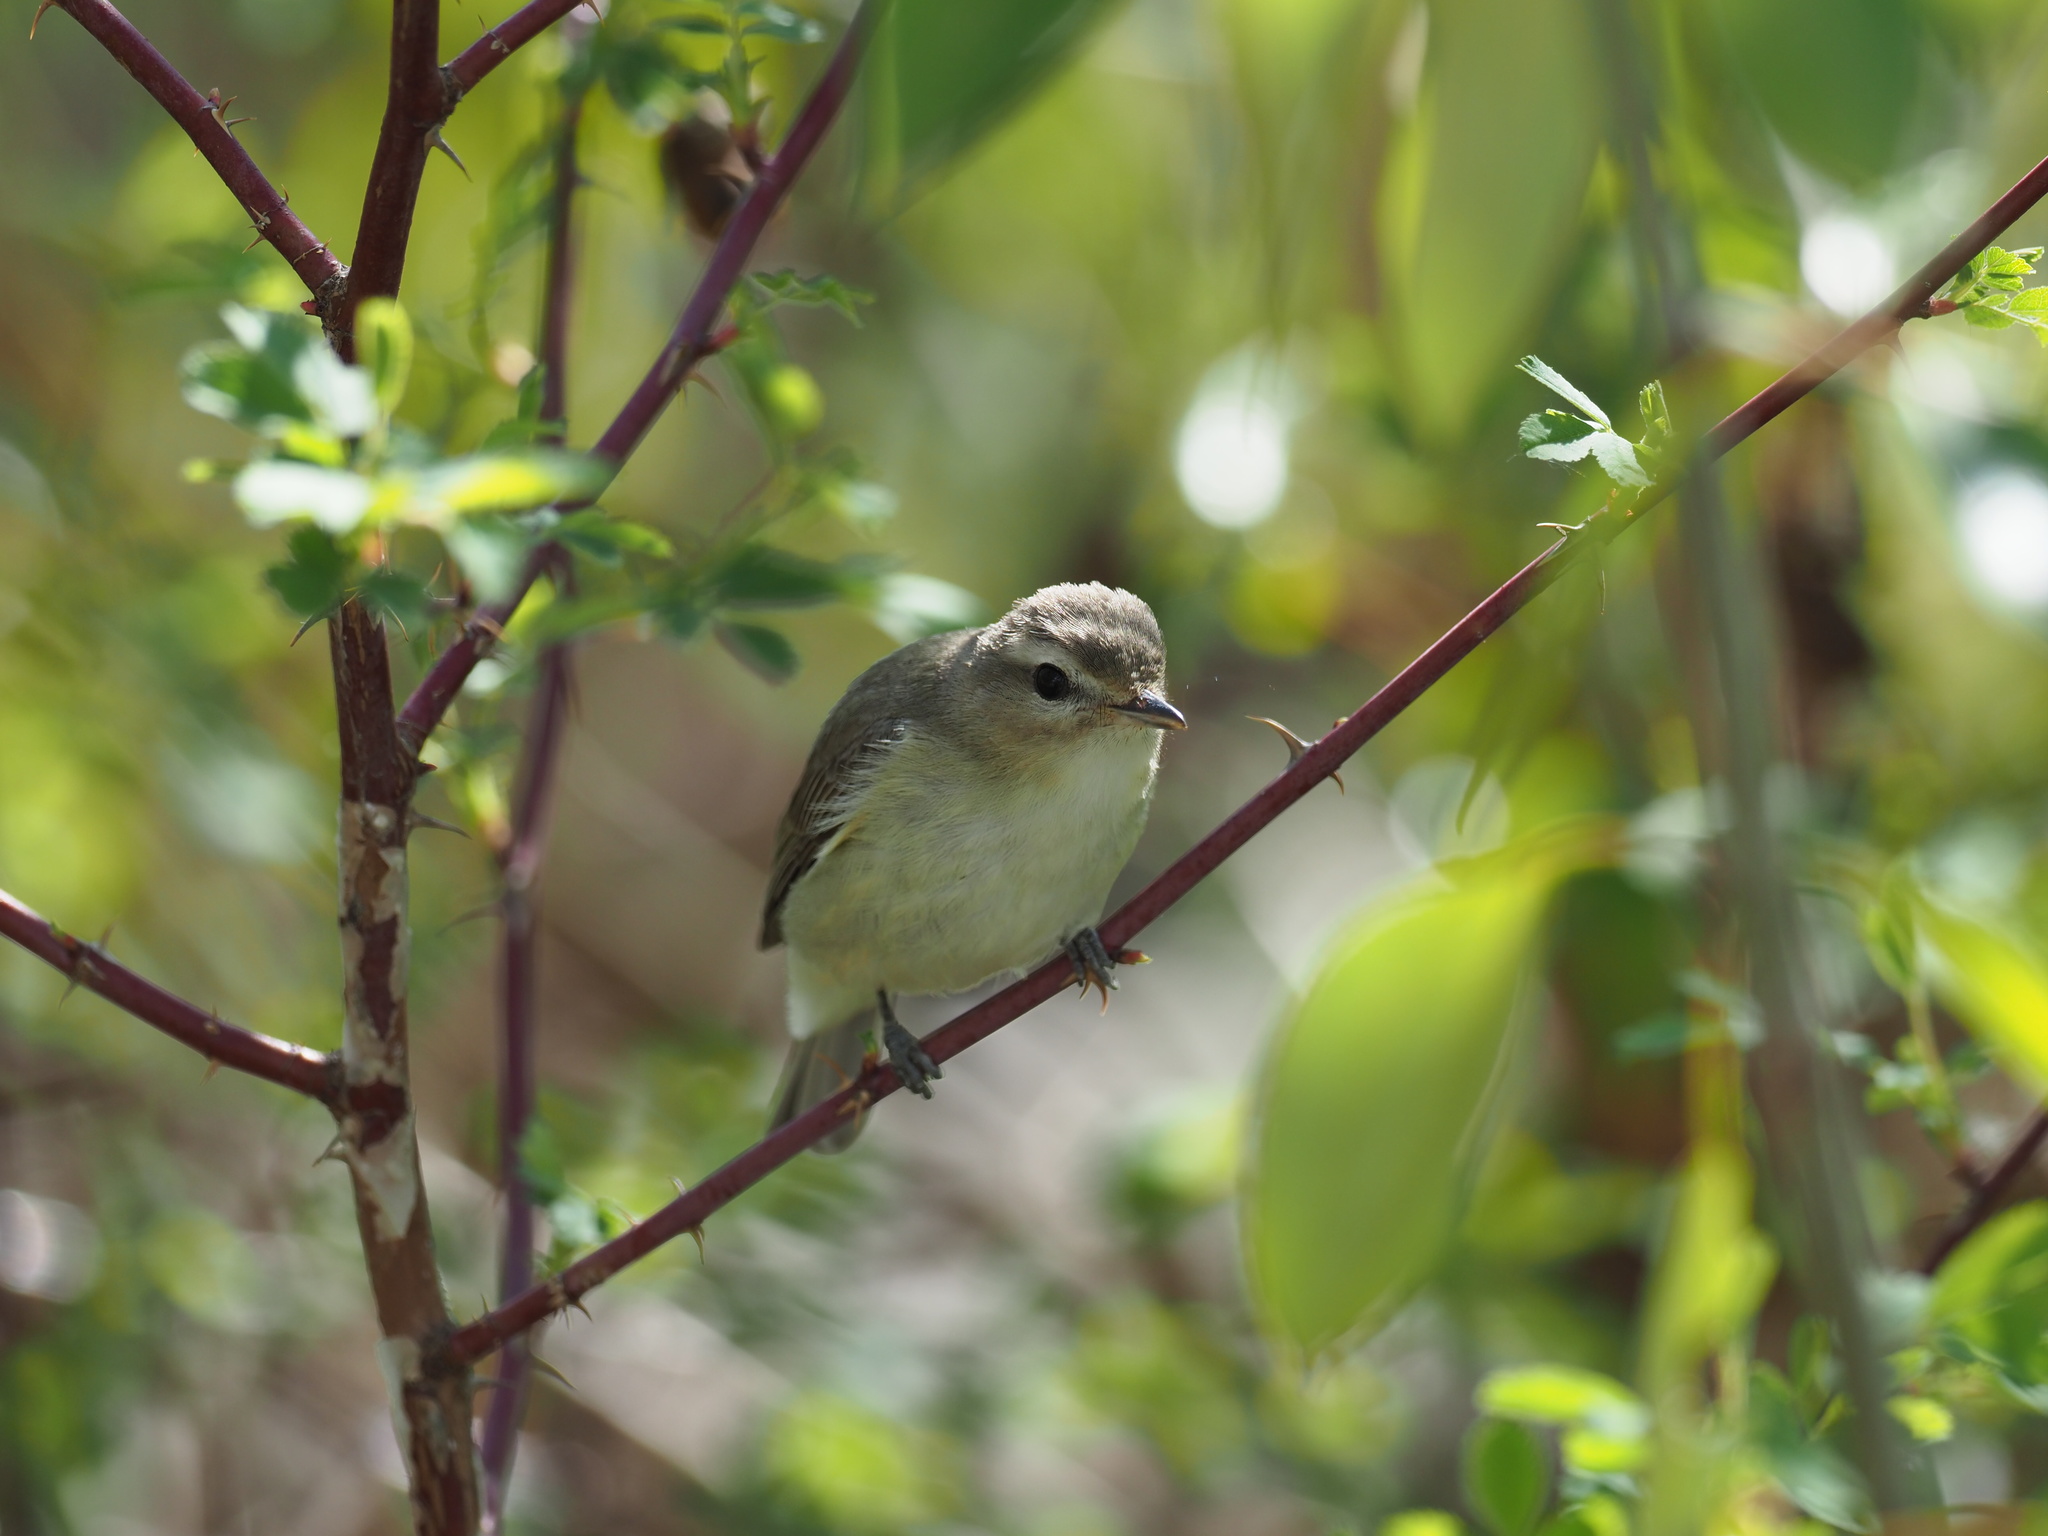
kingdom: Animalia
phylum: Chordata
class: Aves
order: Passeriformes
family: Vireonidae
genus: Vireo
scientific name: Vireo gilvus
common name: Warbling vireo
